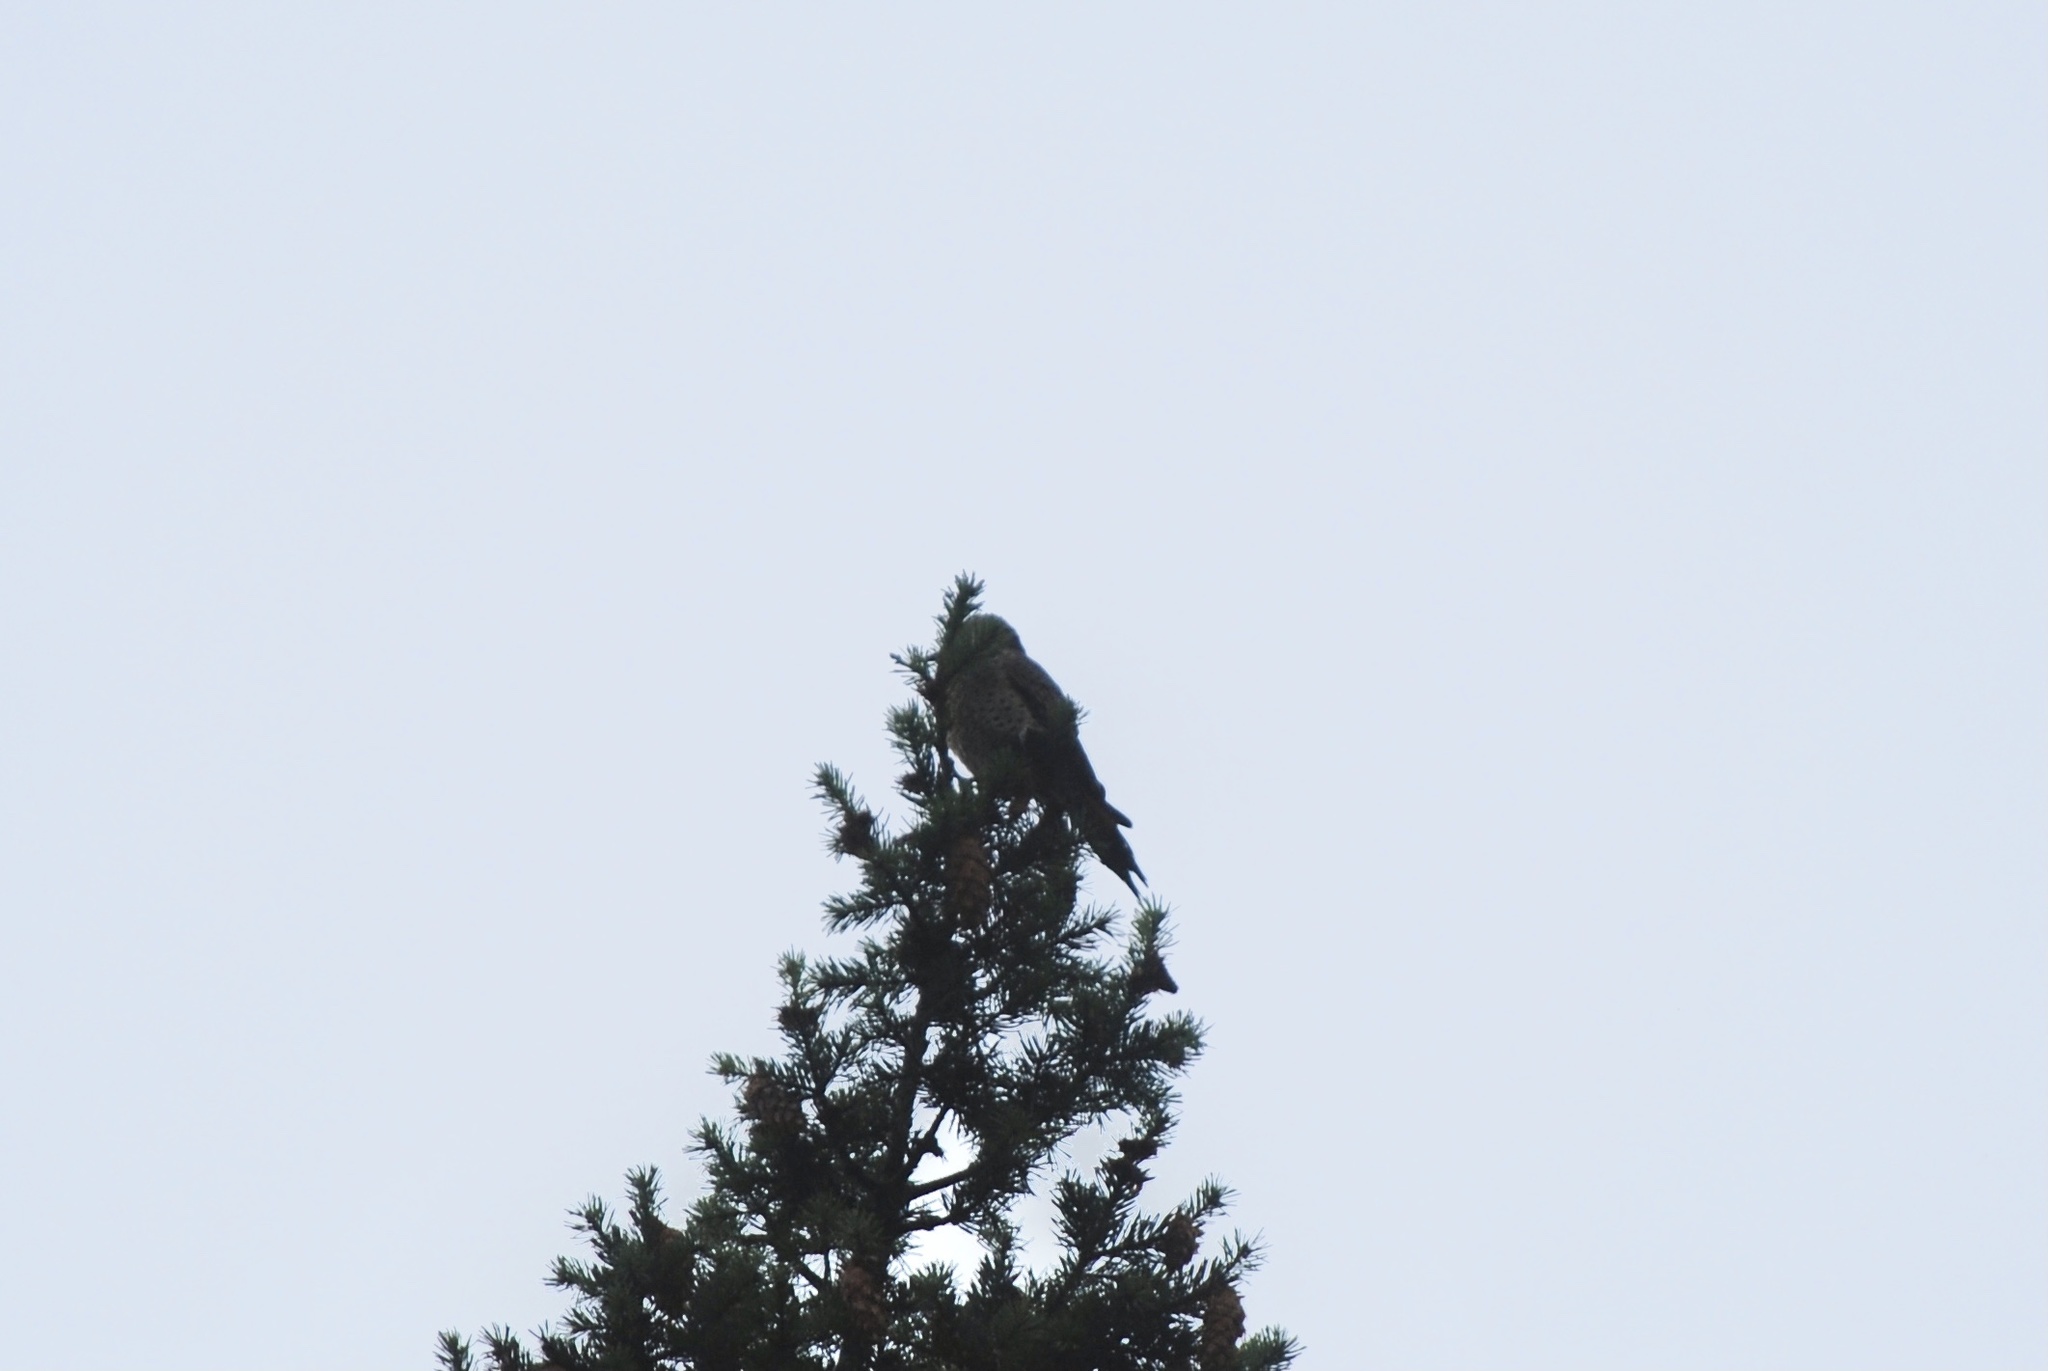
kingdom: Animalia
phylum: Chordata
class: Aves
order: Piciformes
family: Picidae
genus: Colaptes
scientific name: Colaptes auratus
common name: Northern flicker
